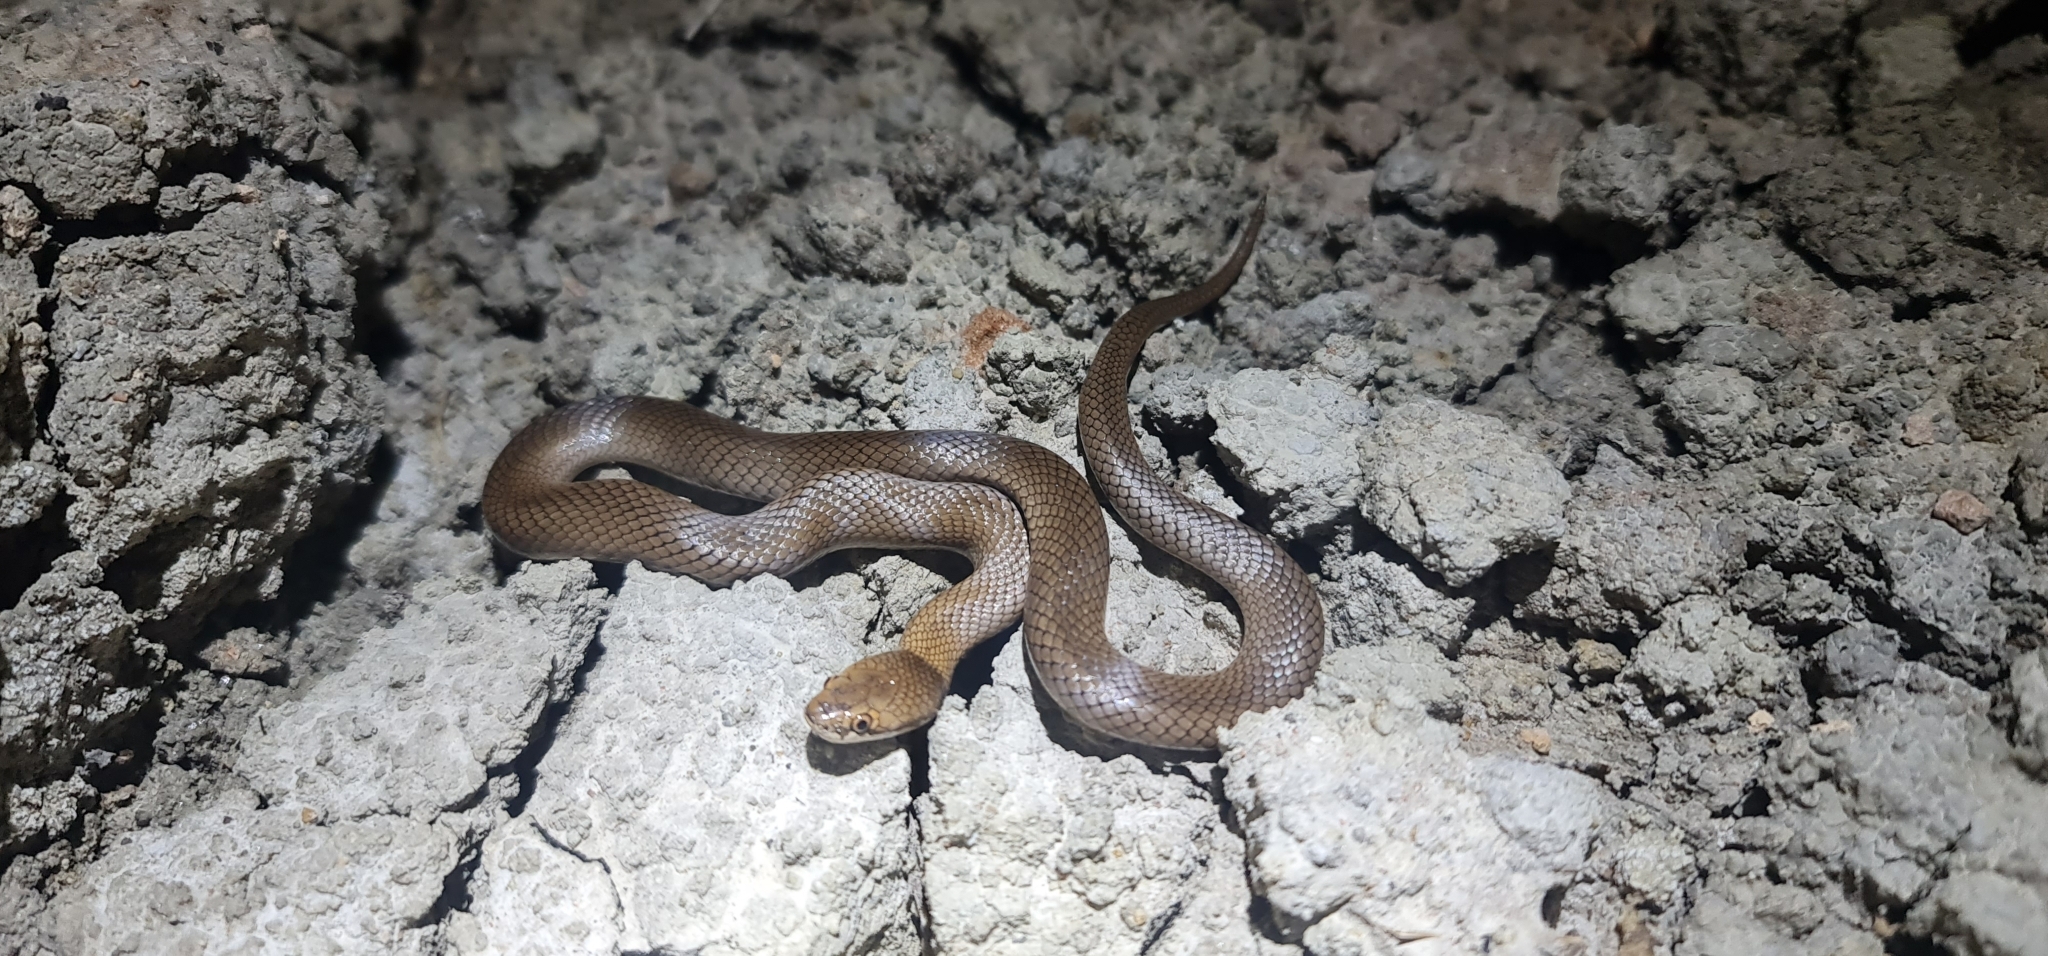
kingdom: Animalia
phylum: Chordata
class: Squamata
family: Elapidae
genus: Suta
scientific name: Suta suta
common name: Curl snake
